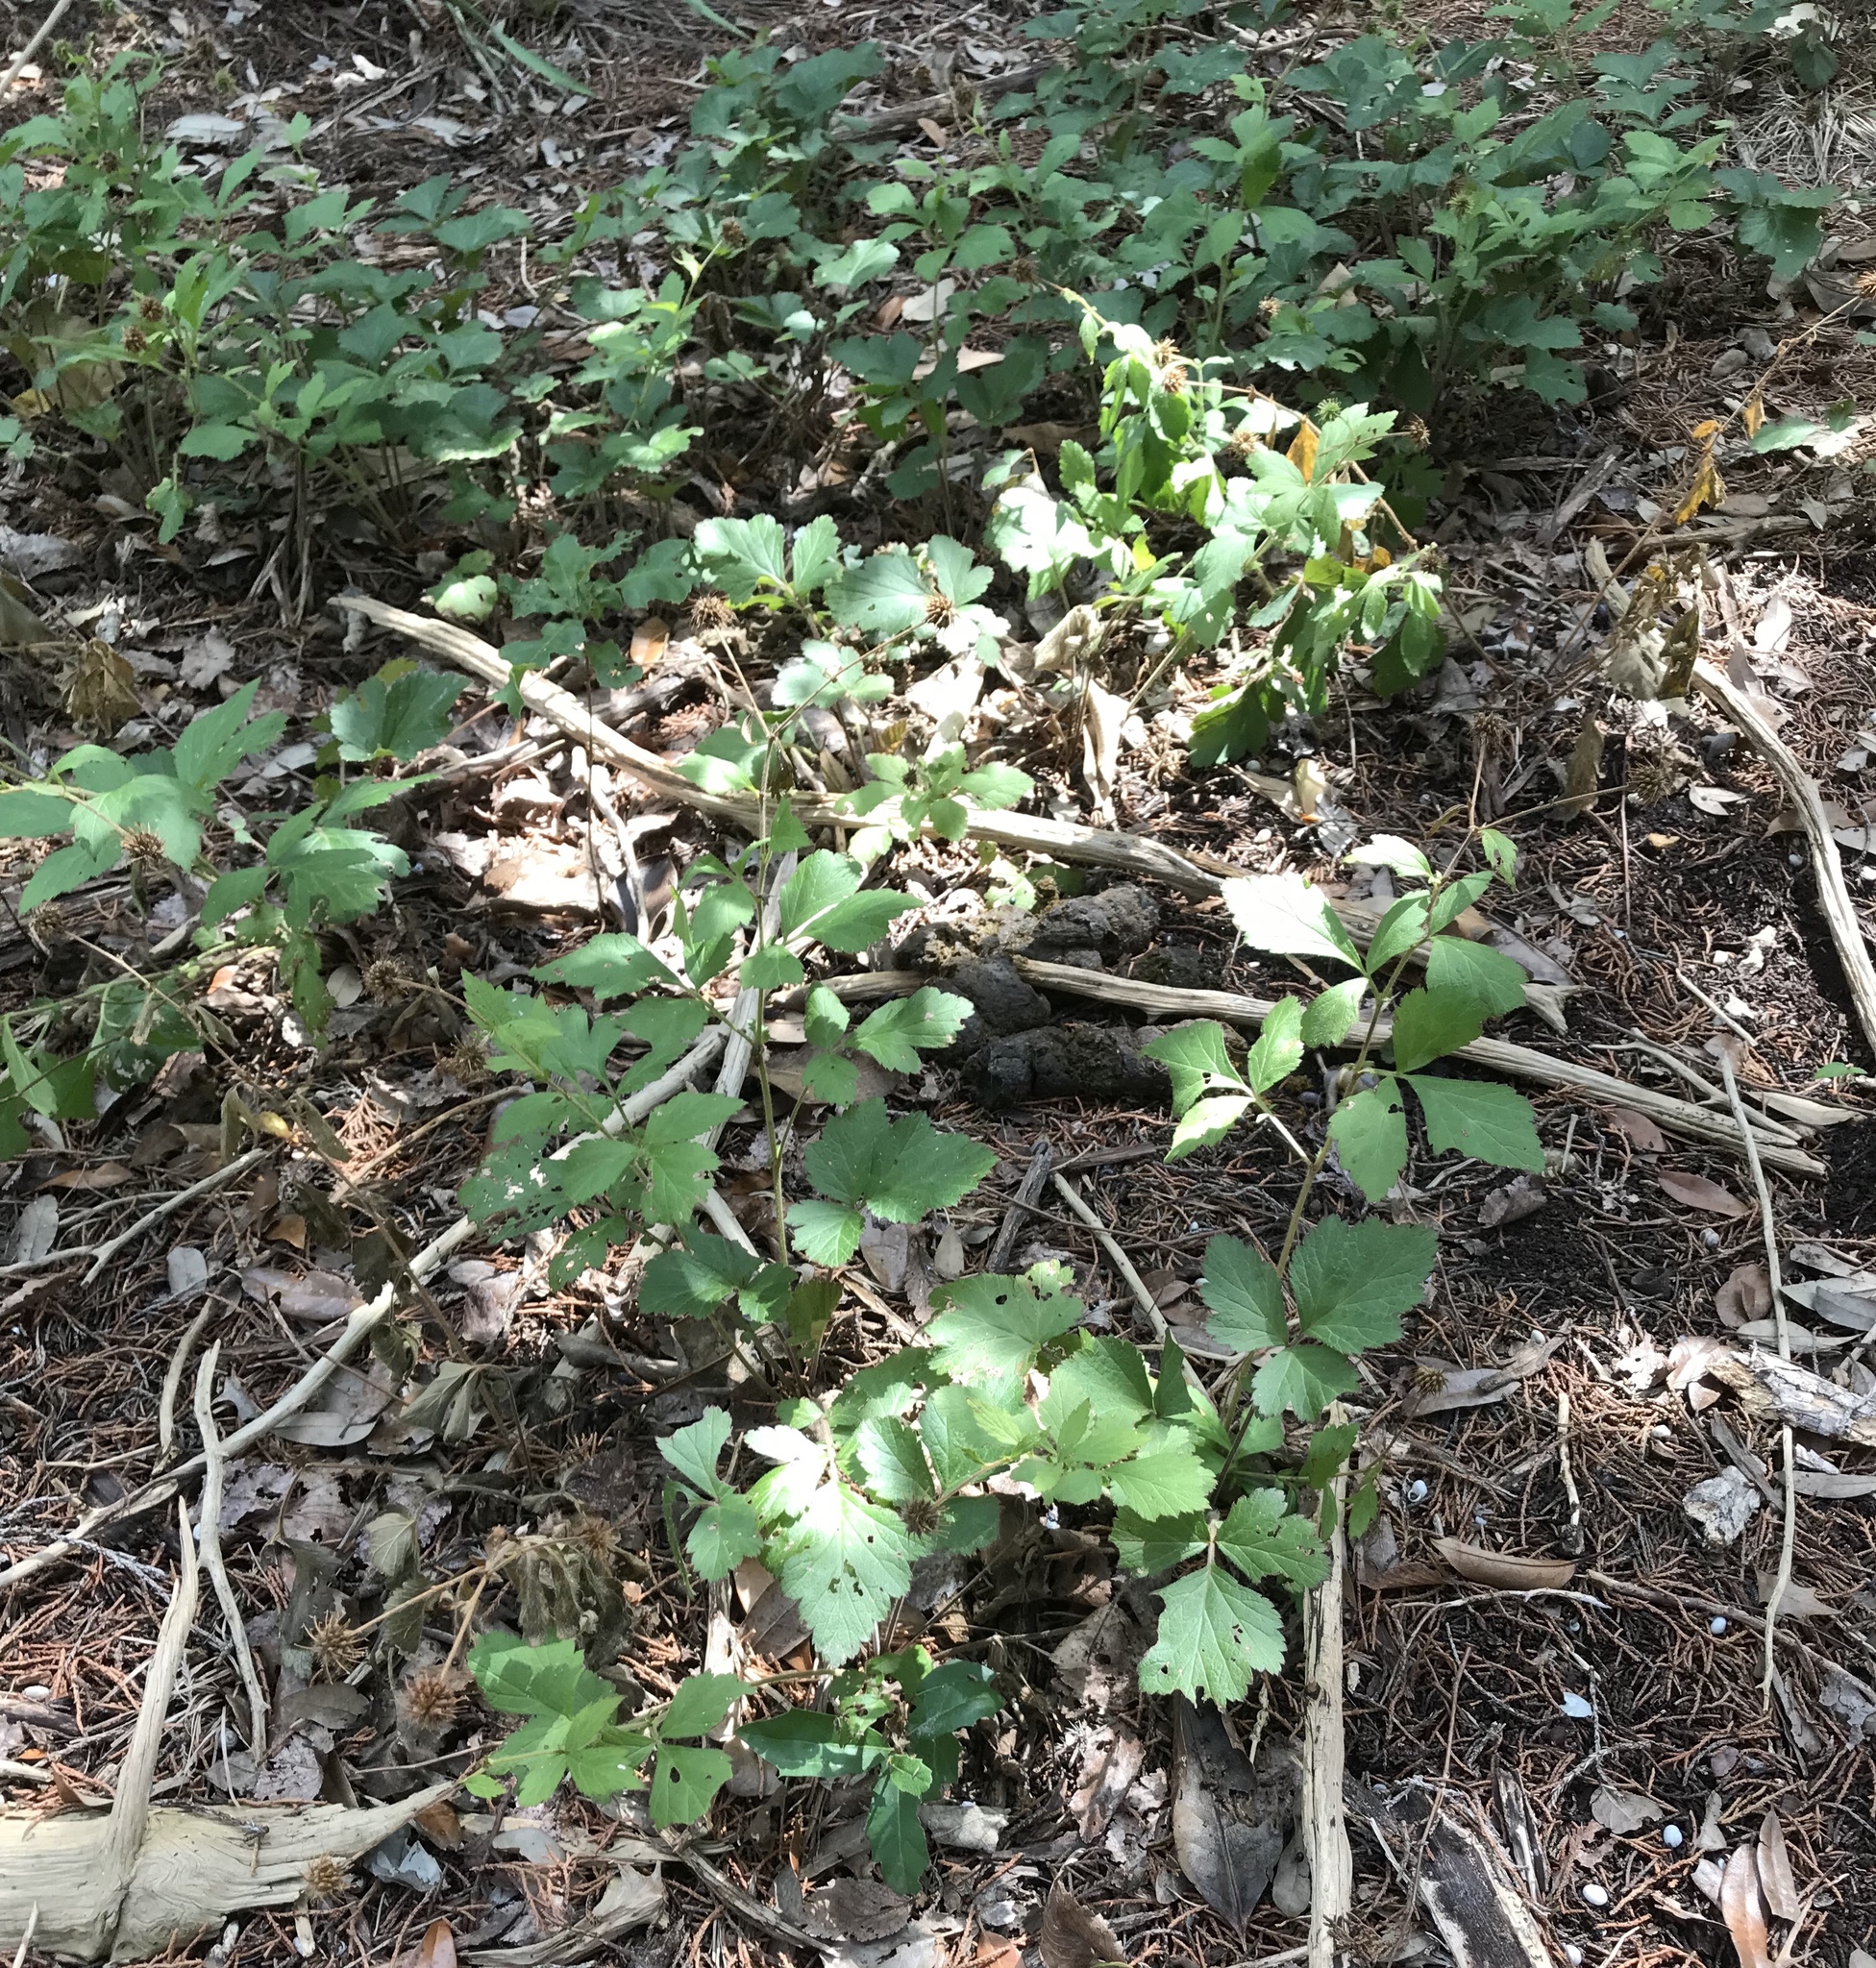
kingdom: Plantae
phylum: Tracheophyta
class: Magnoliopsida
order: Rosales
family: Rosaceae
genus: Geum
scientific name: Geum canadense
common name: White avens
